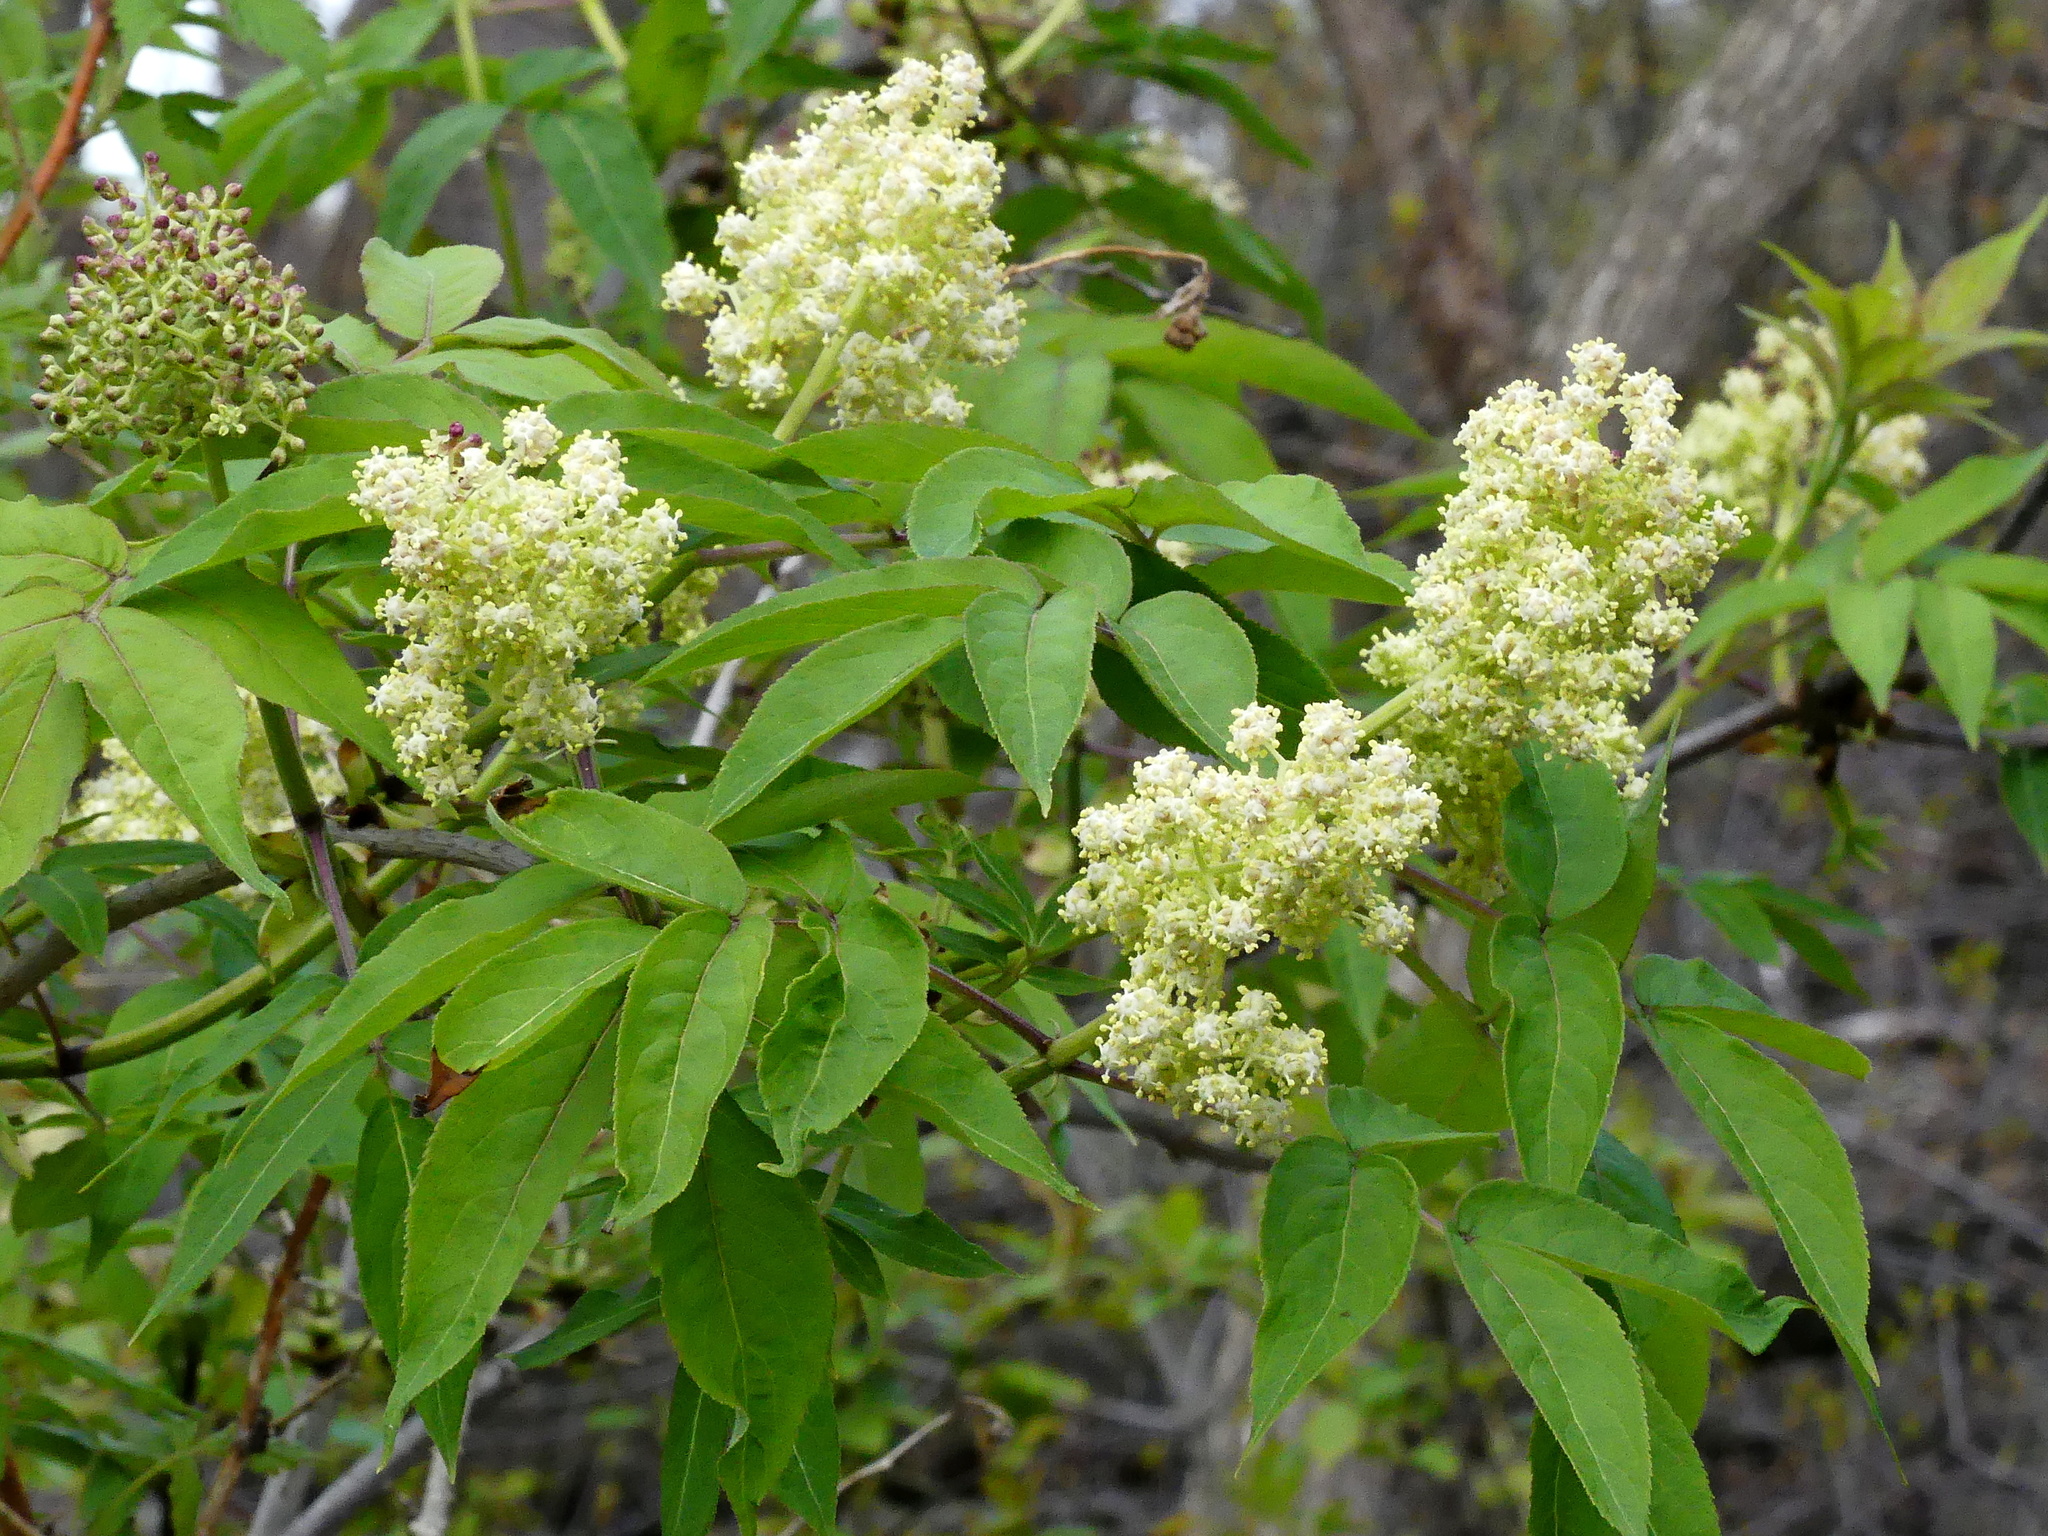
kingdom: Plantae
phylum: Tracheophyta
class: Magnoliopsida
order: Dipsacales
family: Viburnaceae
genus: Sambucus
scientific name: Sambucus racemosa
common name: Red-berried elder
